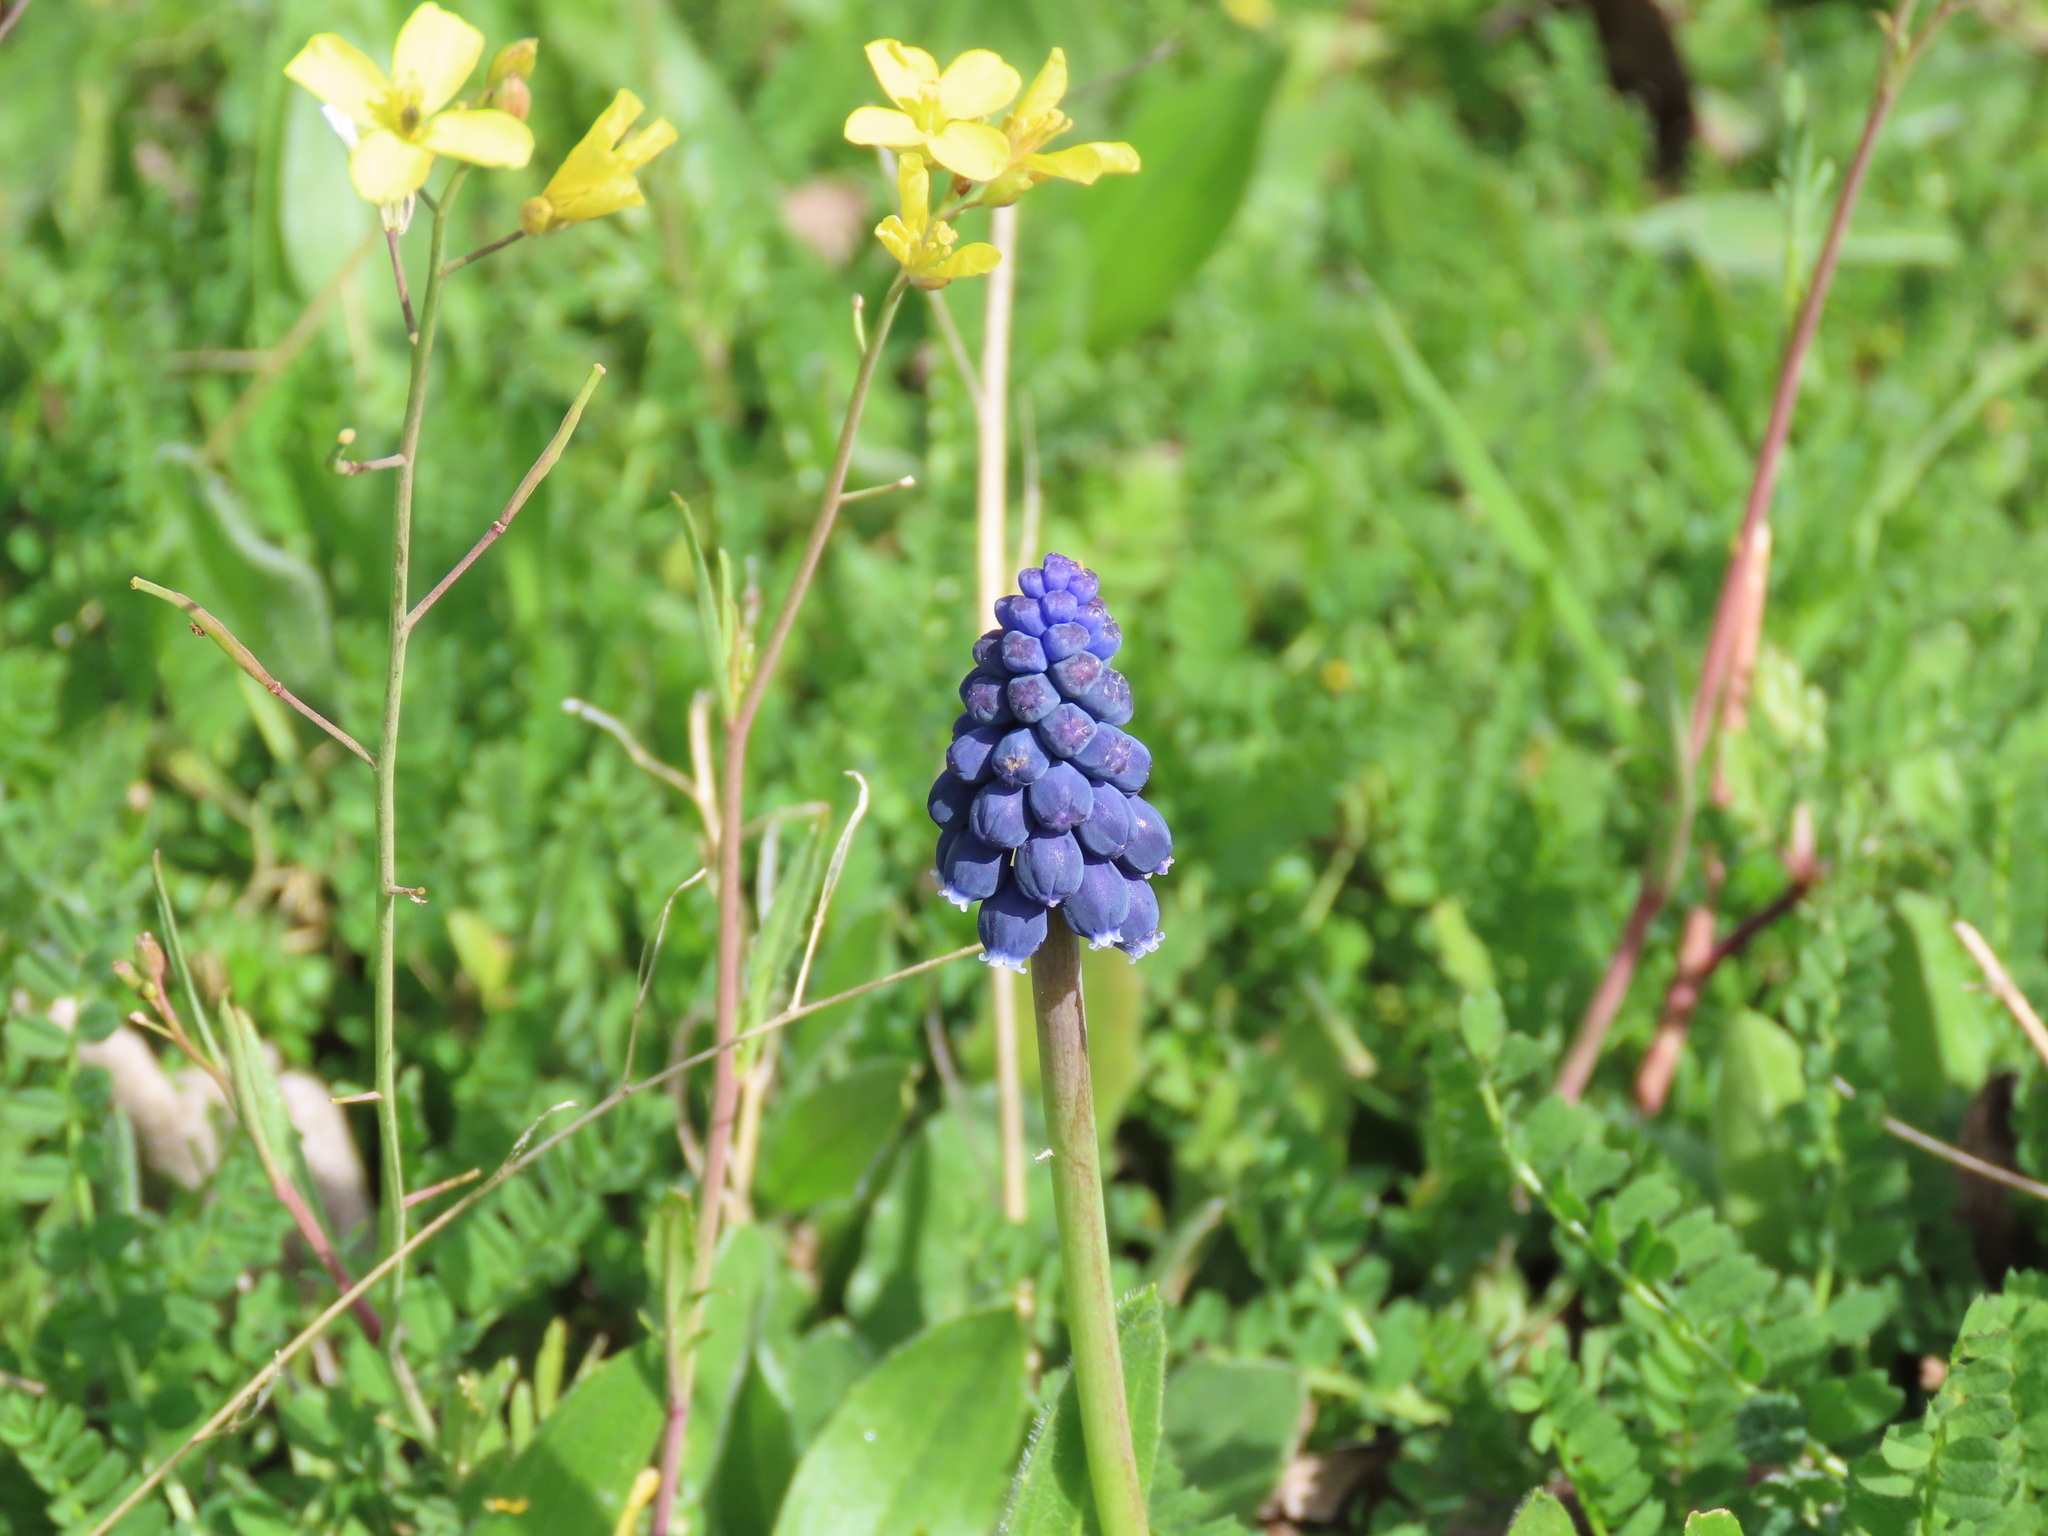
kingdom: Plantae
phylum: Tracheophyta
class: Liliopsida
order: Asparagales
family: Asparagaceae
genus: Muscari
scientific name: Muscari neglectum
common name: Grape-hyacinth
